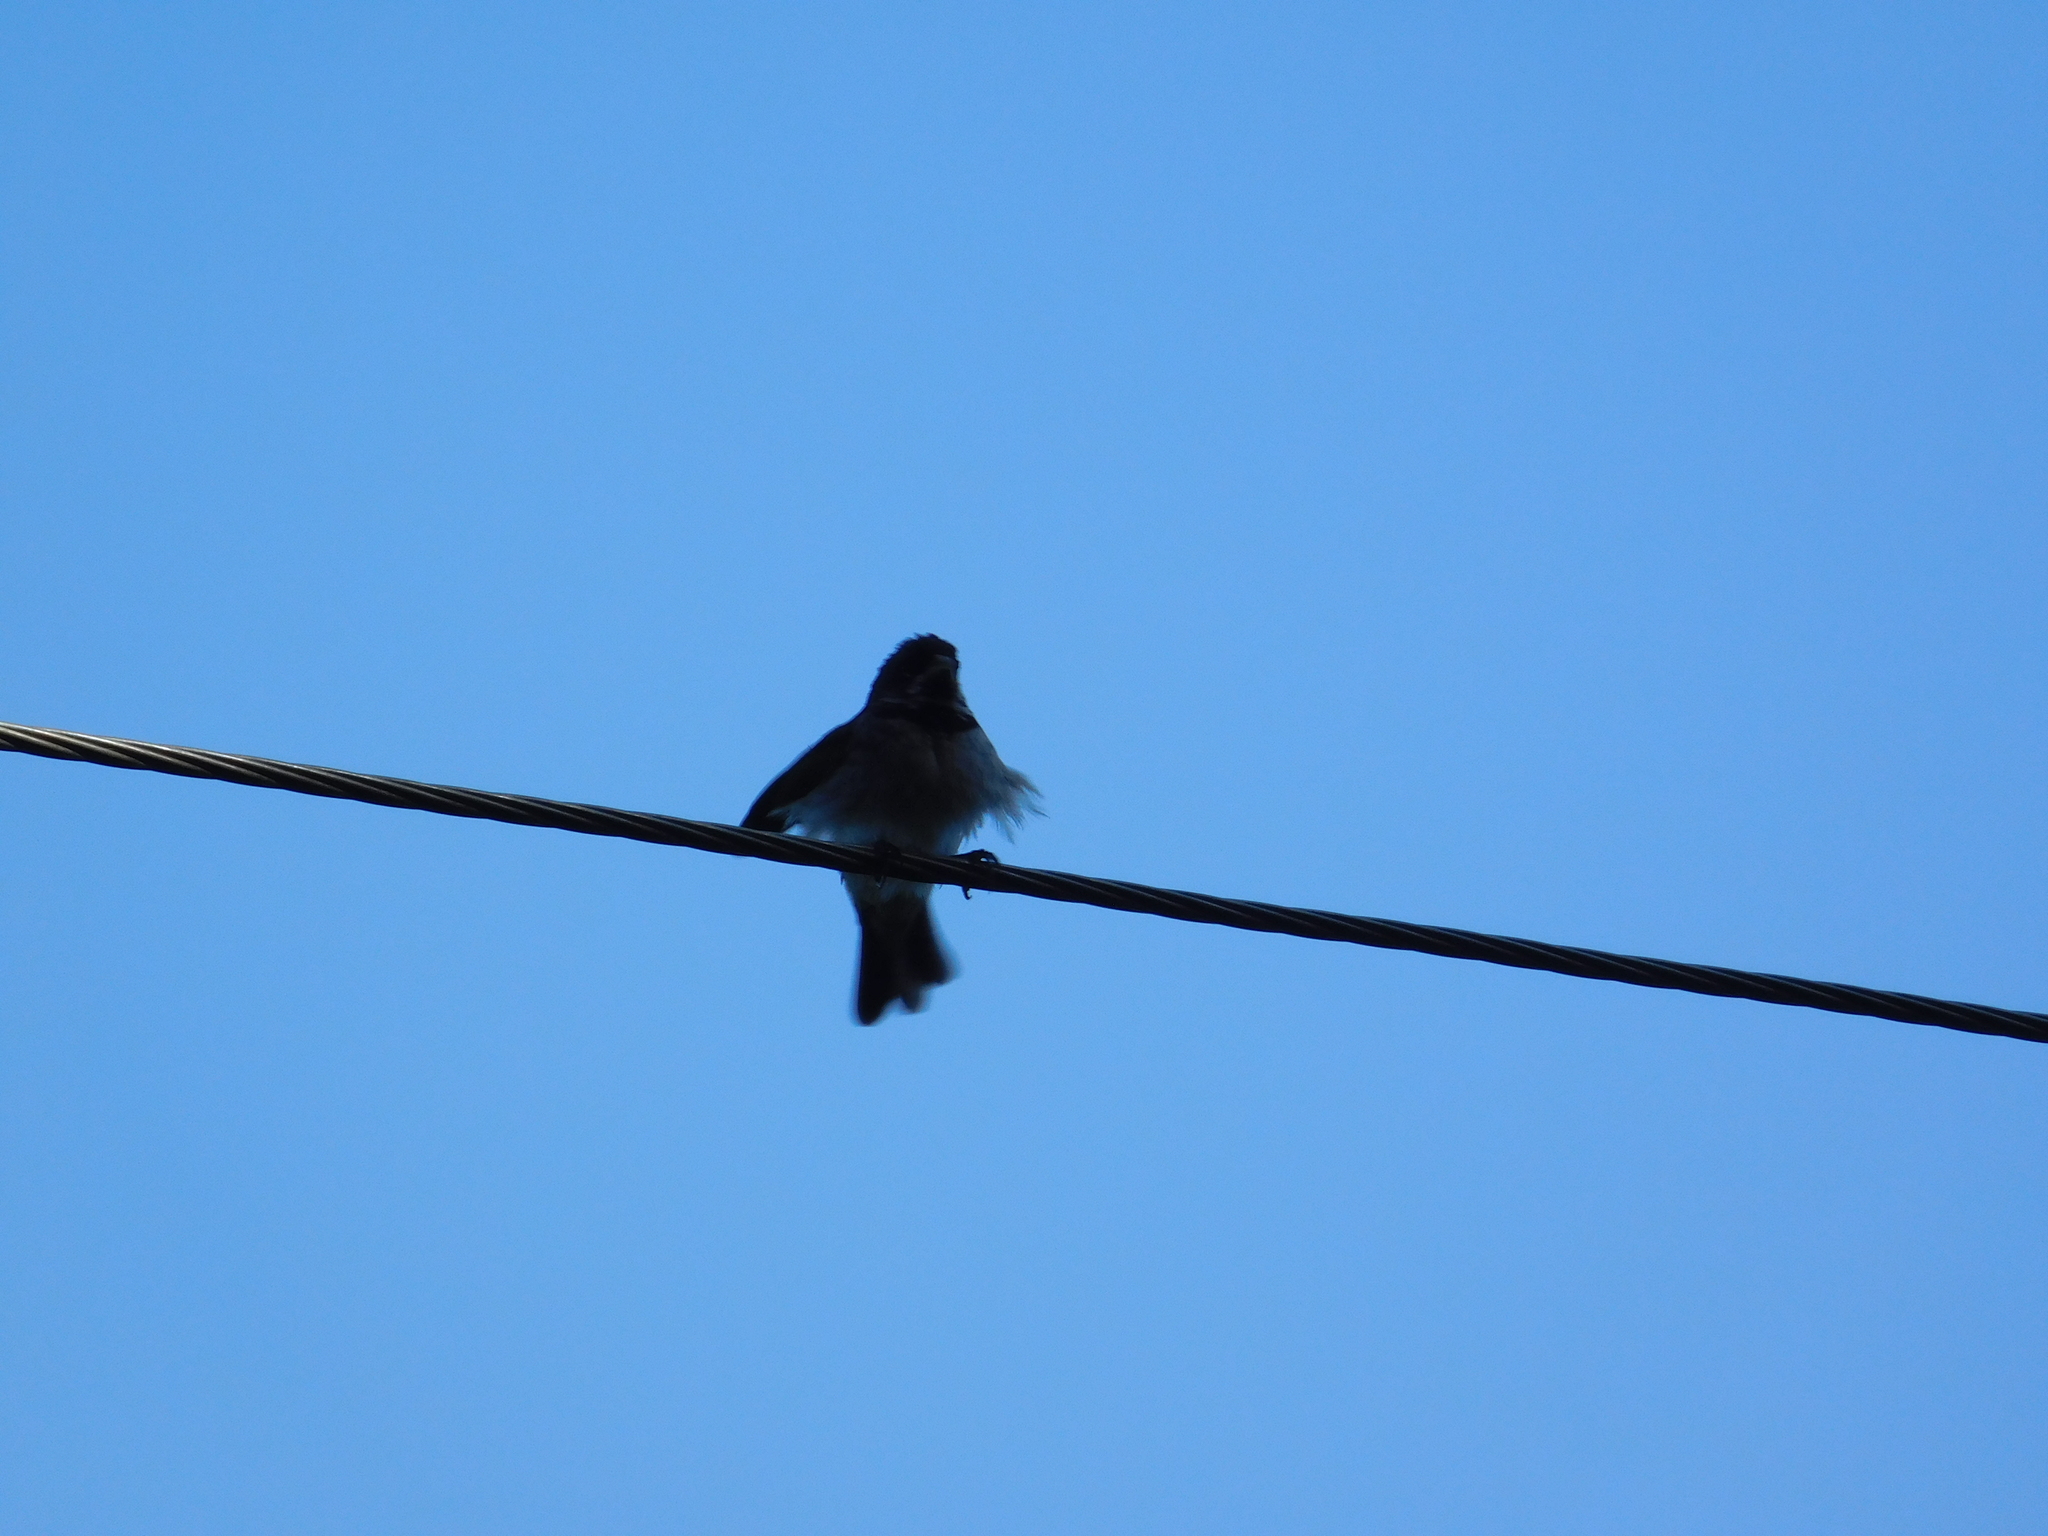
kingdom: Animalia
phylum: Chordata
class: Aves
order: Passeriformes
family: Thraupidae
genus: Sporophila
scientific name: Sporophila caerulescens
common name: Double-collared seedeater
